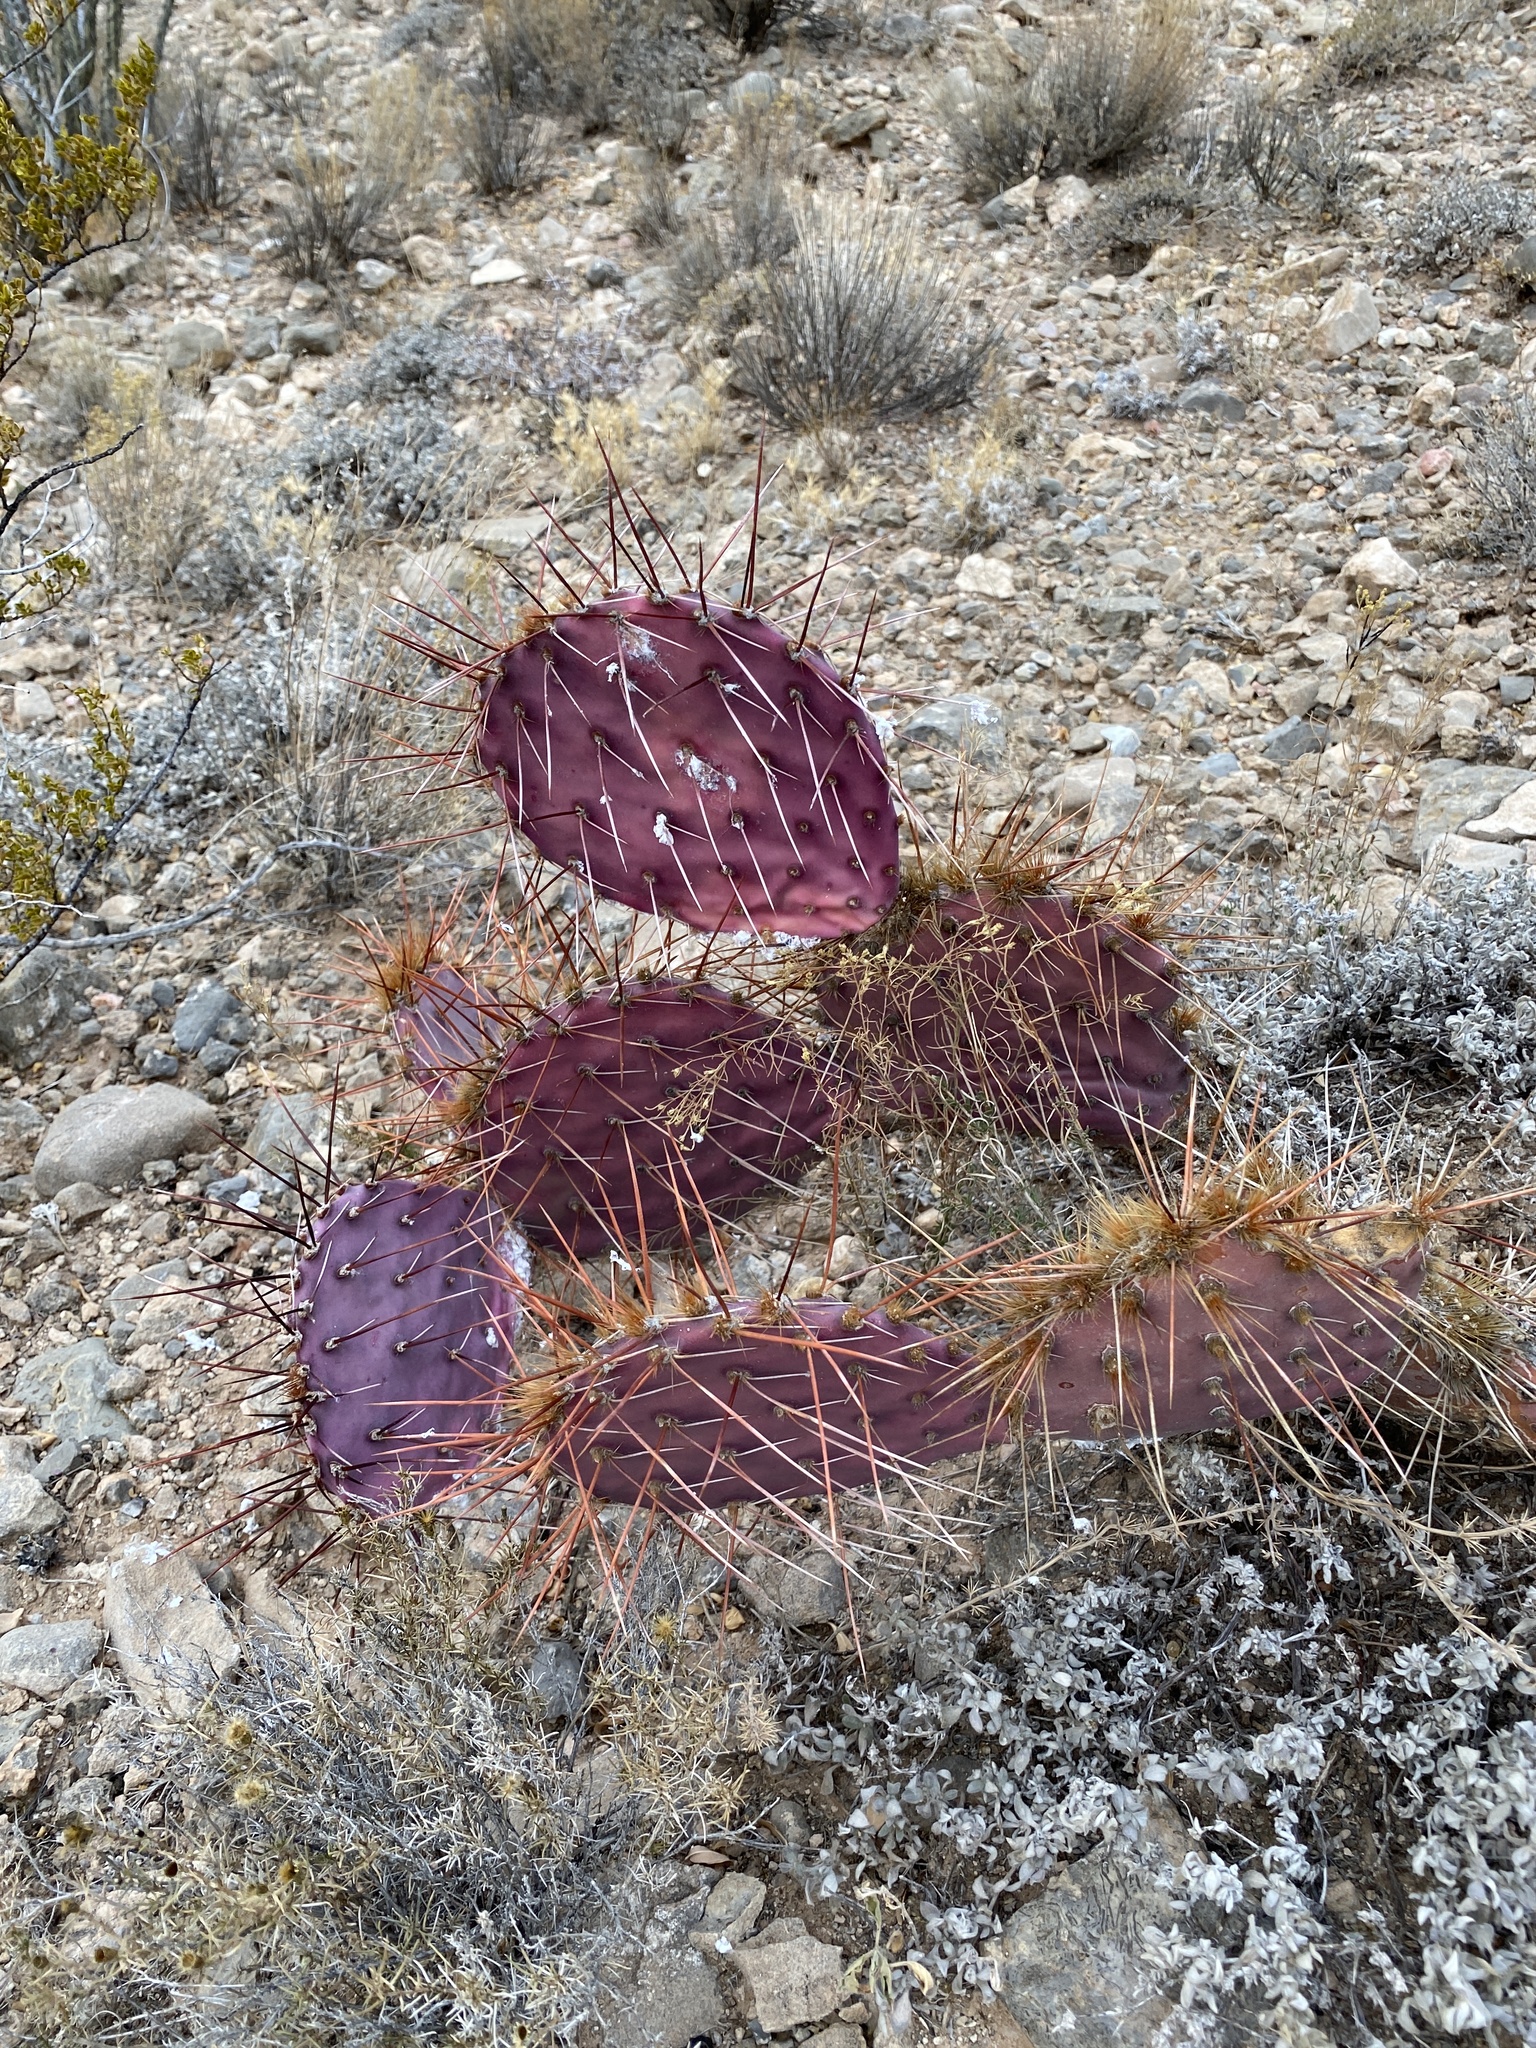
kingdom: Plantae
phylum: Tracheophyta
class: Magnoliopsida
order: Caryophyllales
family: Cactaceae
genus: Opuntia
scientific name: Opuntia macrocentra
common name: Purple prickly-pear
